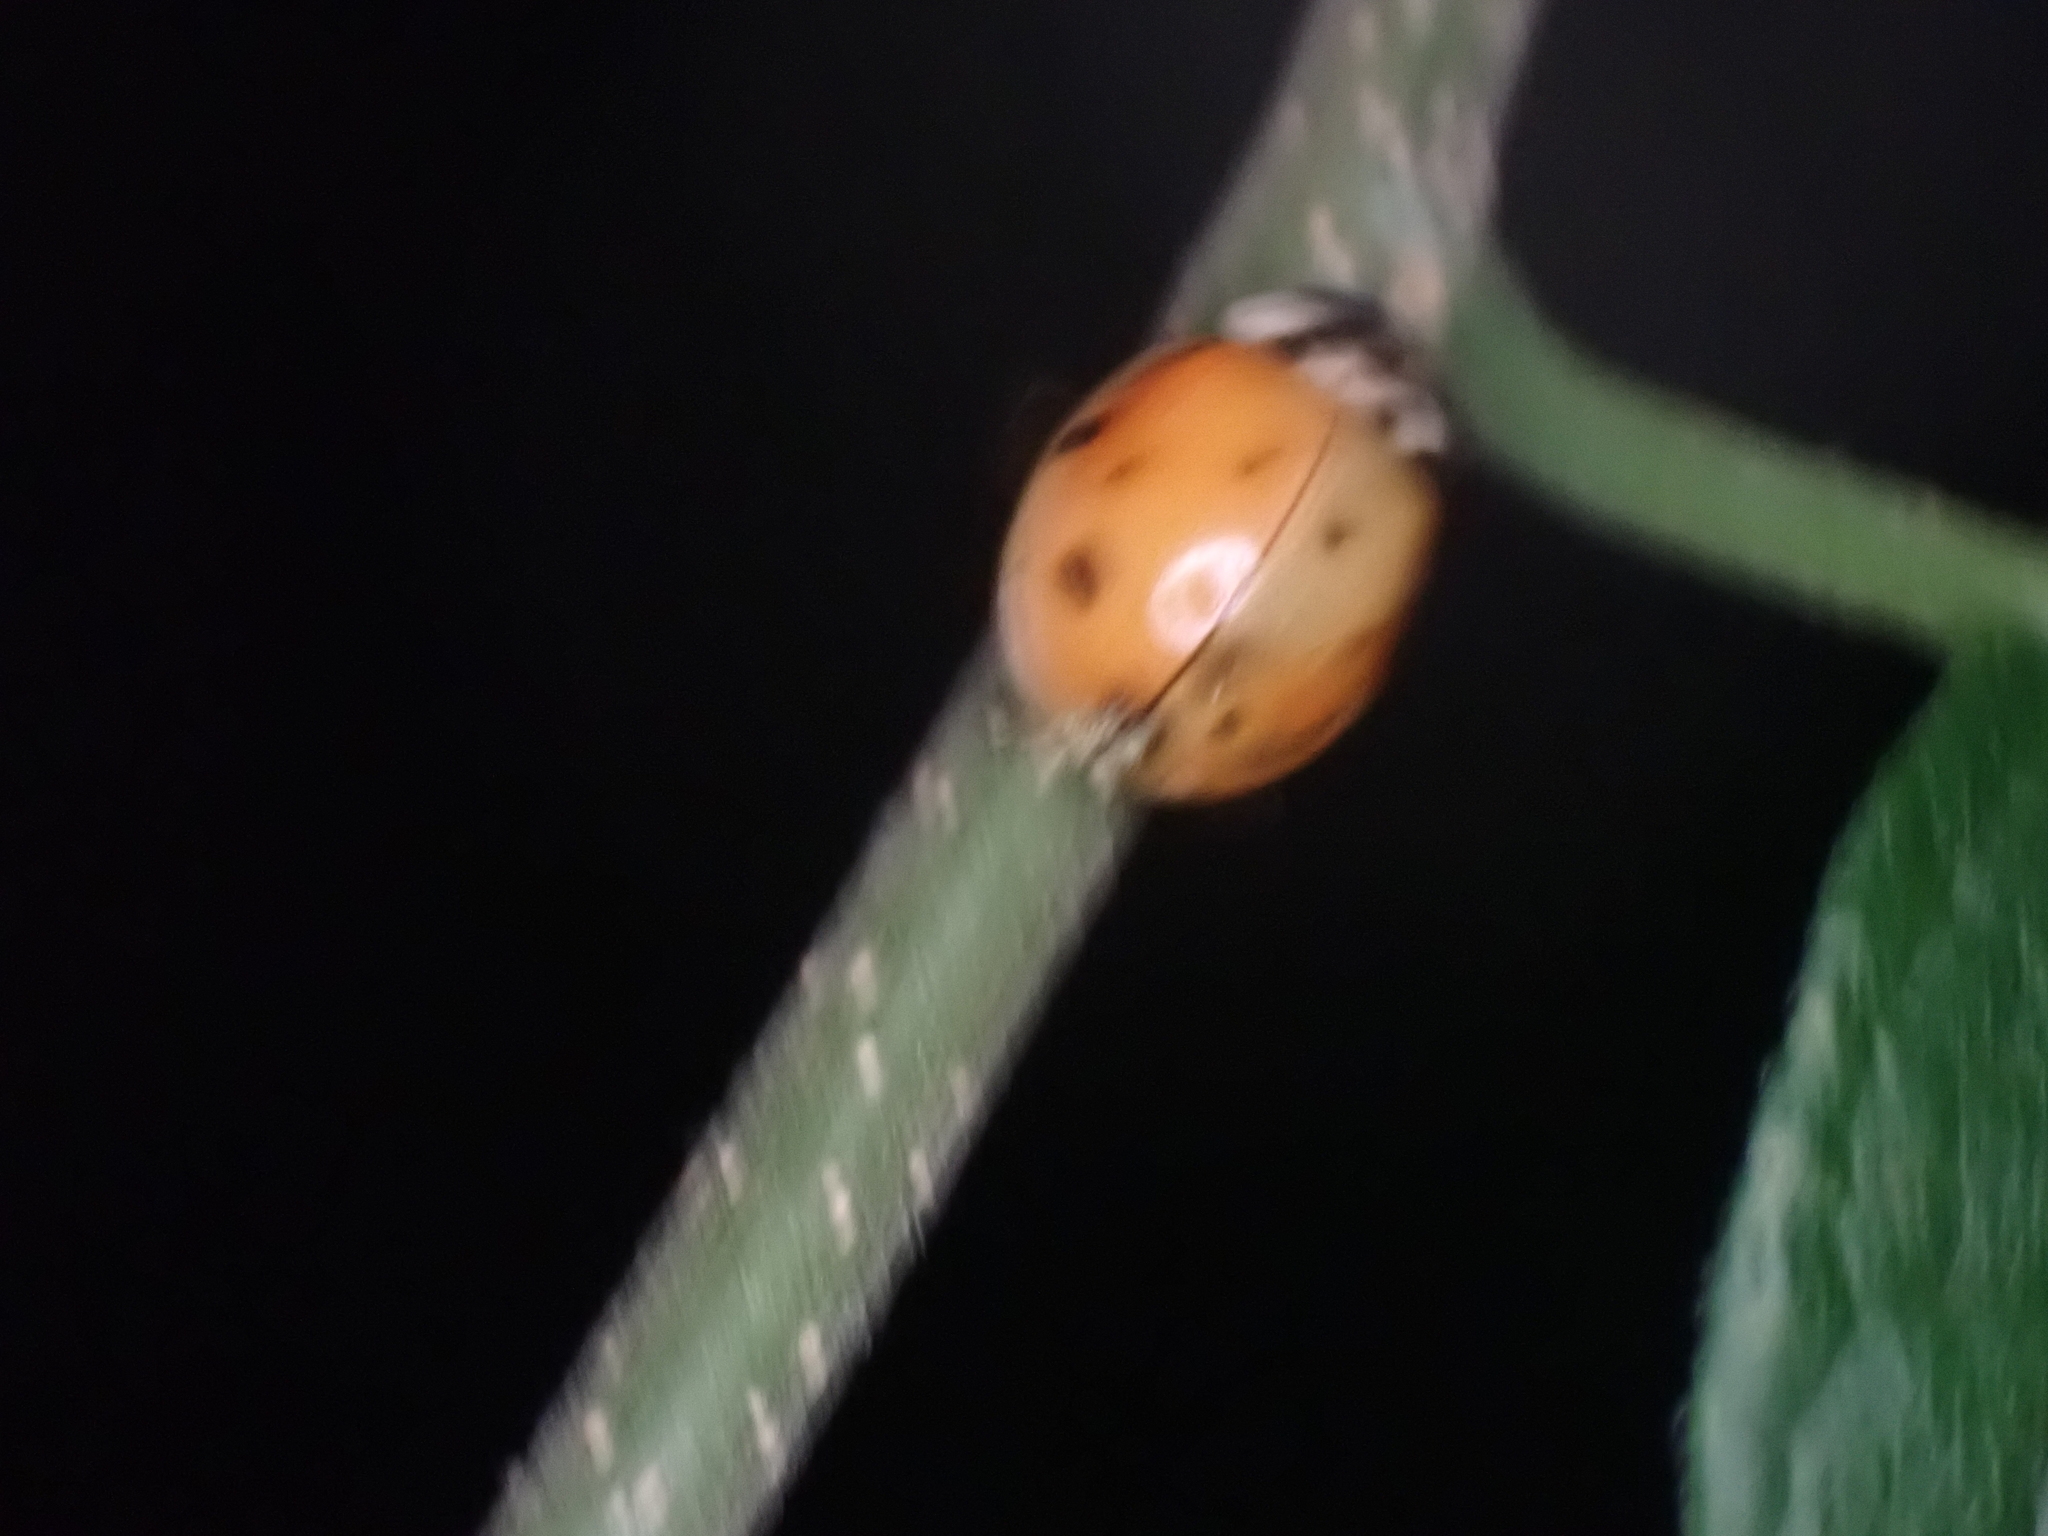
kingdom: Animalia
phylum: Arthropoda
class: Insecta
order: Coleoptera
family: Coccinellidae
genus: Harmonia
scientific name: Harmonia axyridis
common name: Harlequin ladybird
